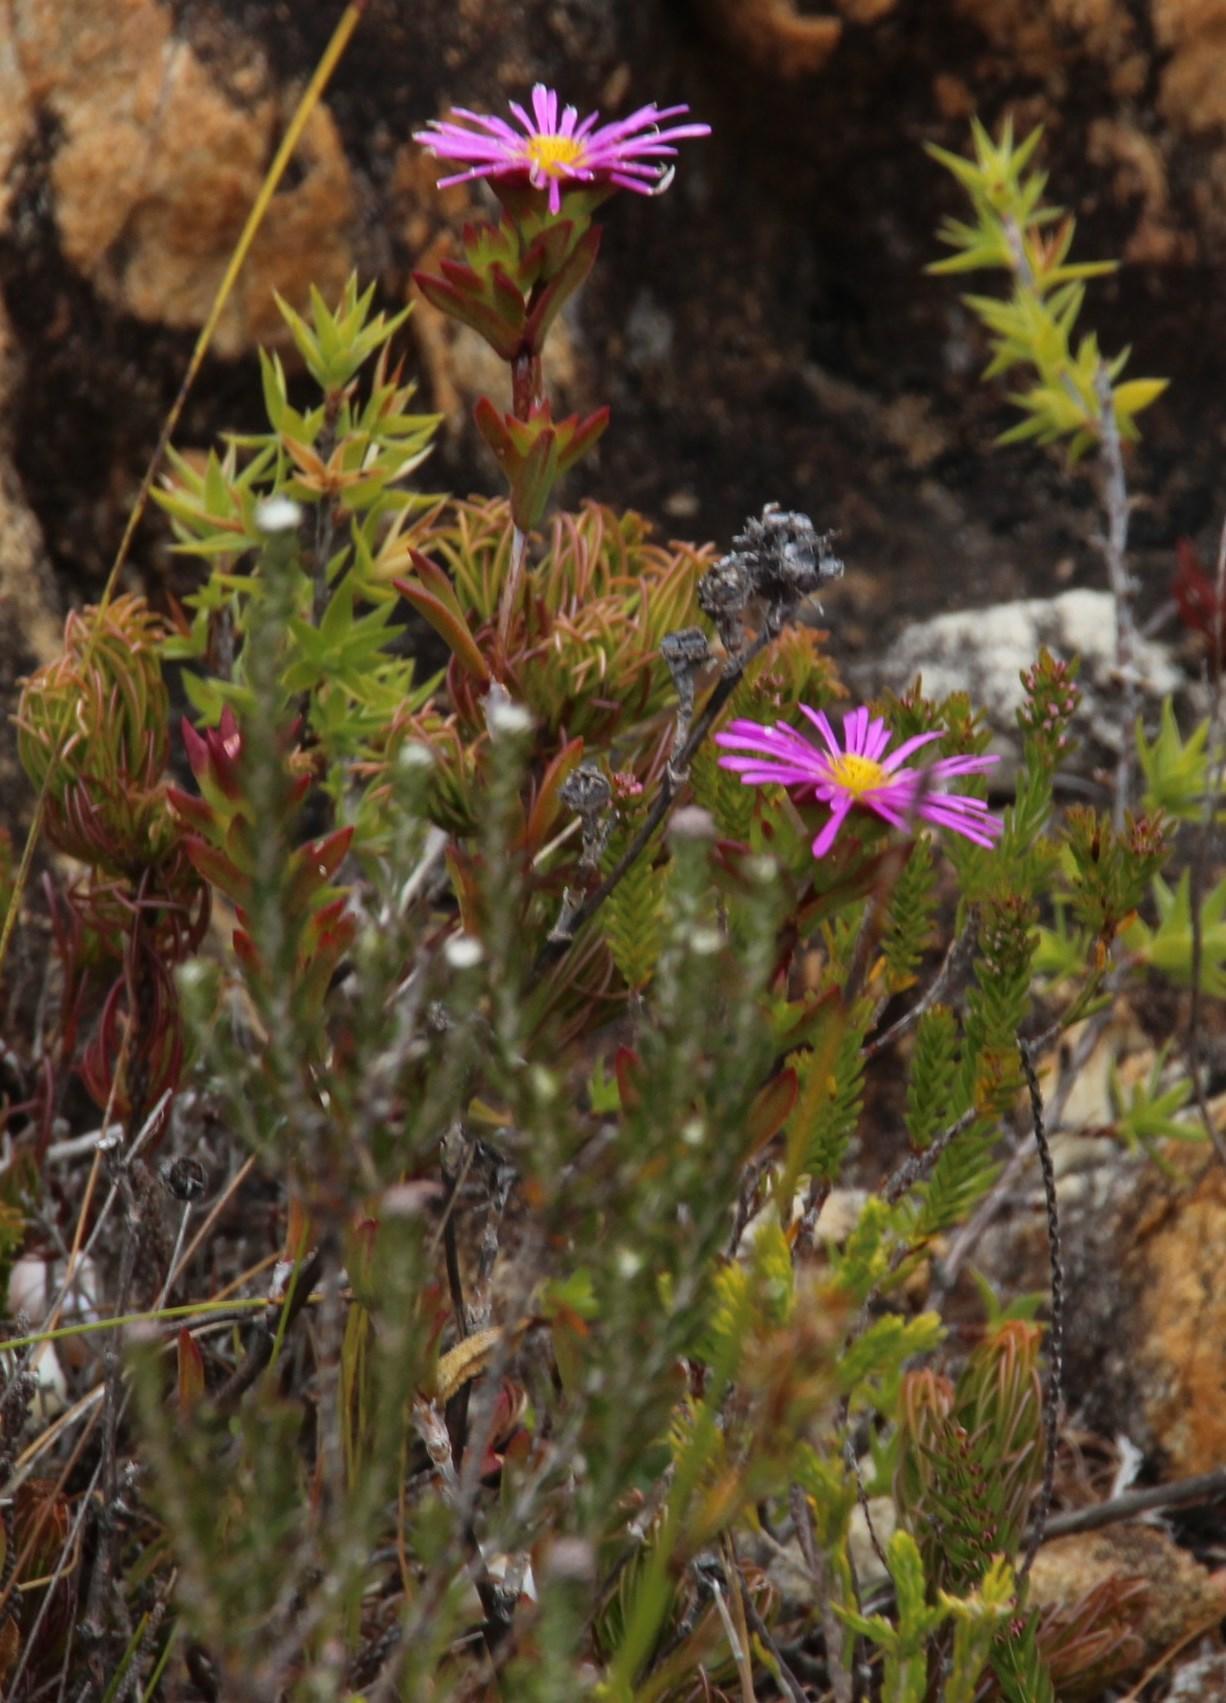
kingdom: Plantae
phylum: Tracheophyta
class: Magnoliopsida
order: Caryophyllales
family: Aizoaceae
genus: Erepsia
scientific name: Erepsia bracteata
